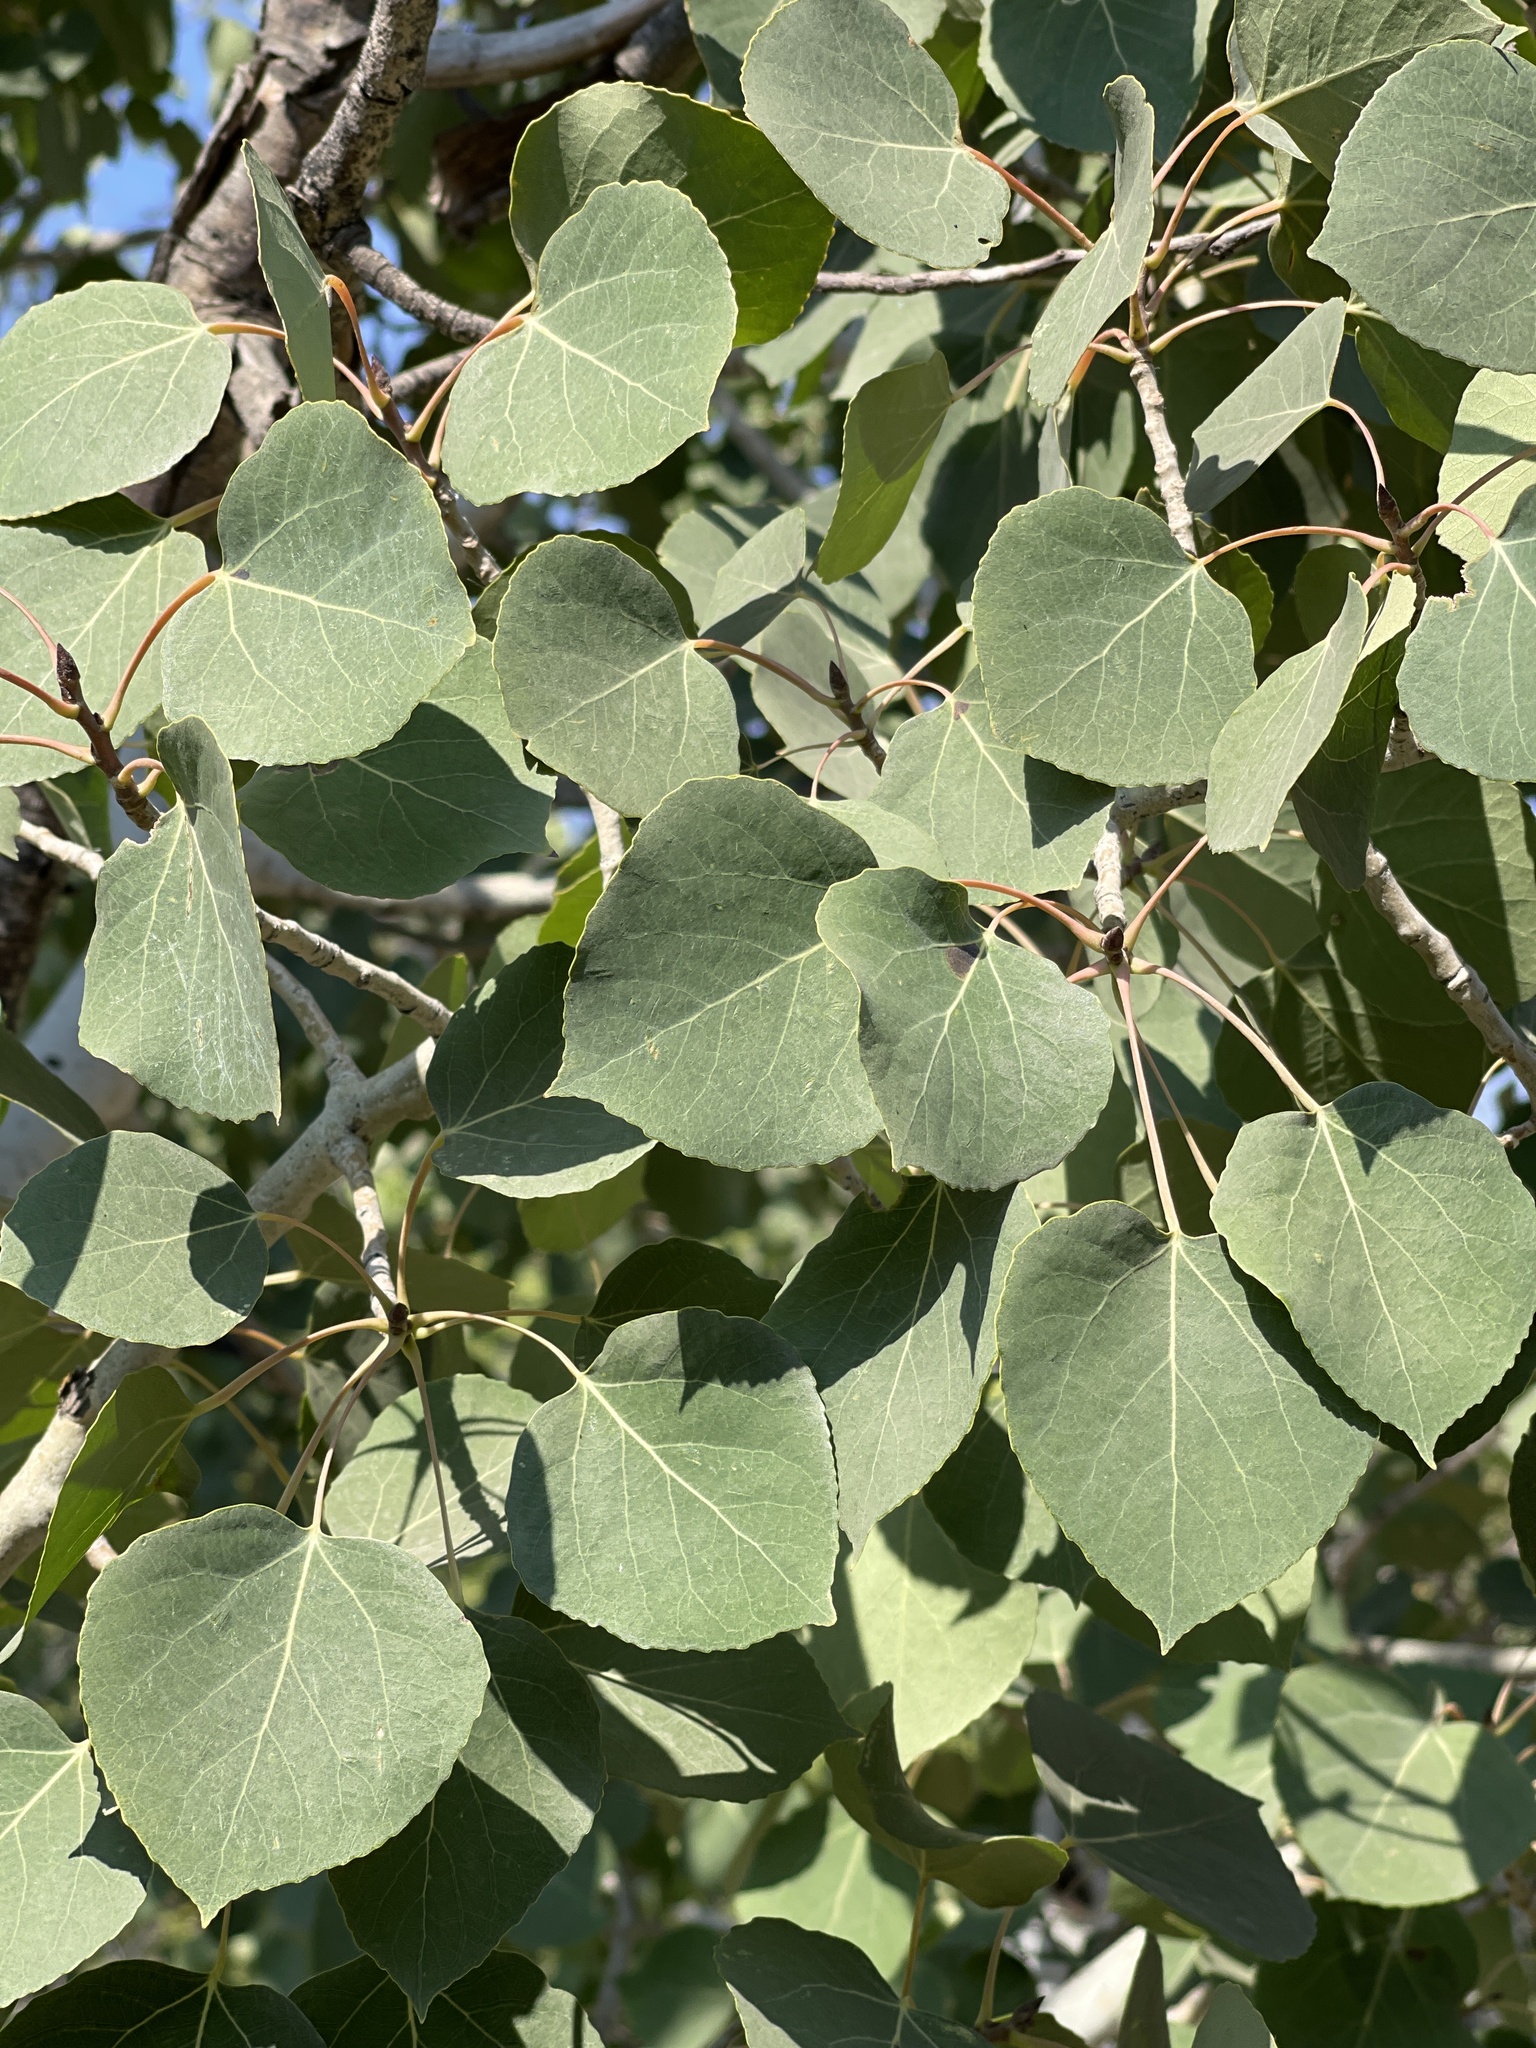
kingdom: Plantae
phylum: Tracheophyta
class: Magnoliopsida
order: Malpighiales
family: Salicaceae
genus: Populus
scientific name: Populus tremuloides
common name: Quaking aspen
